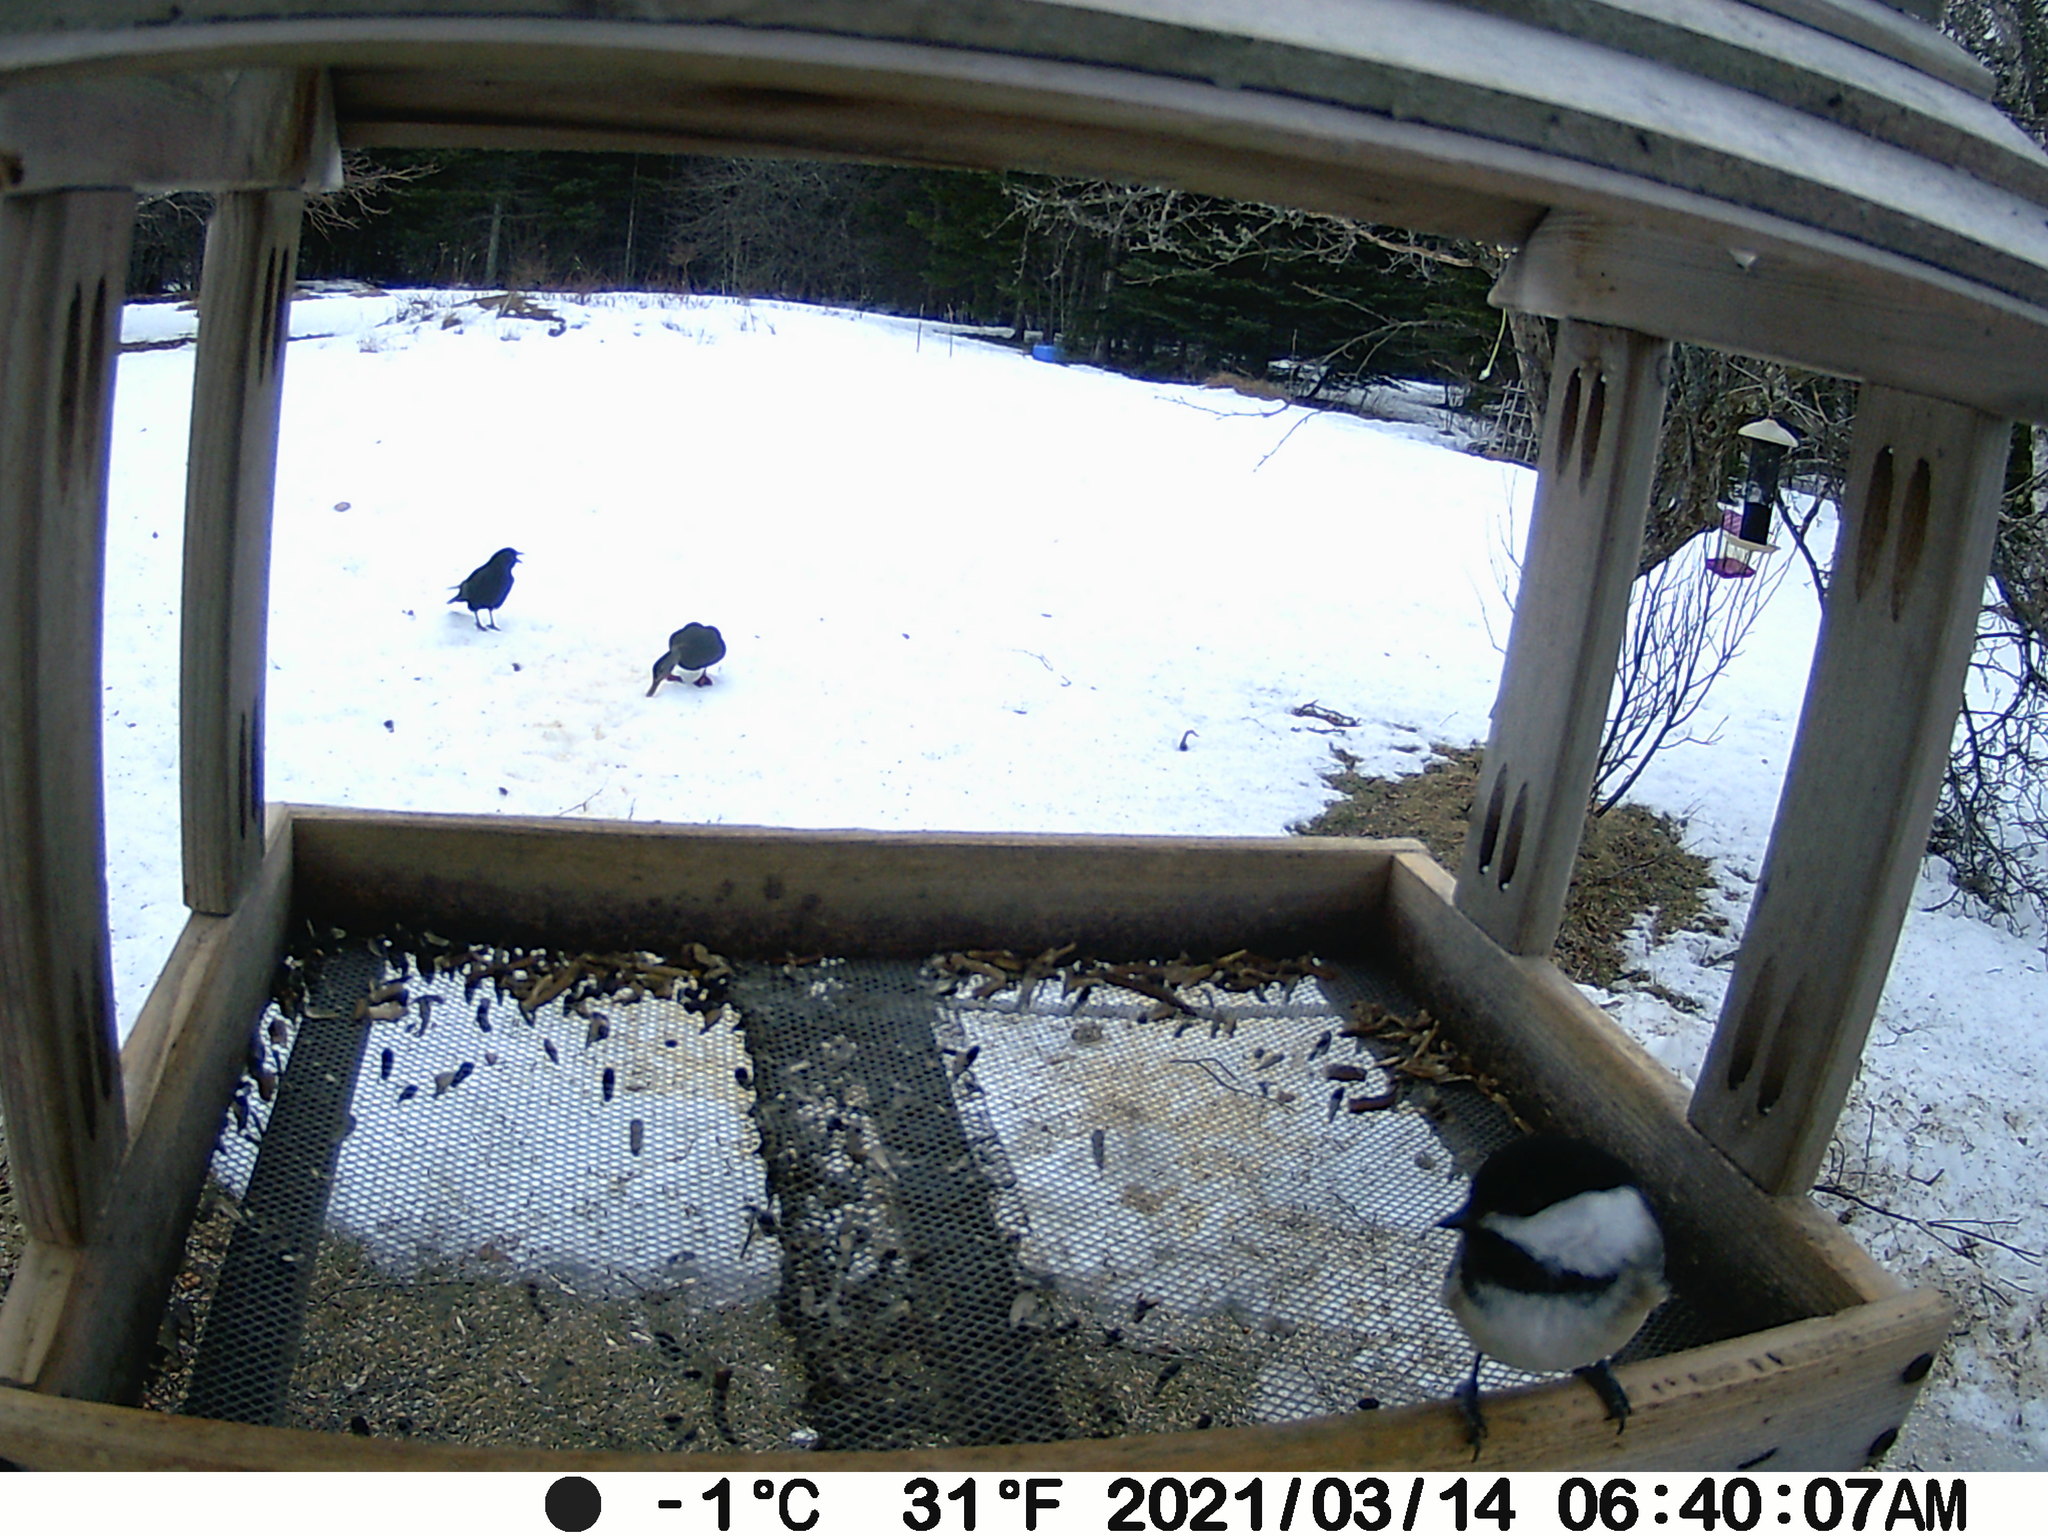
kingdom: Animalia
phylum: Chordata
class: Aves
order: Anseriformes
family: Anatidae
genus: Anas
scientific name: Anas rubripes
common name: American black duck
